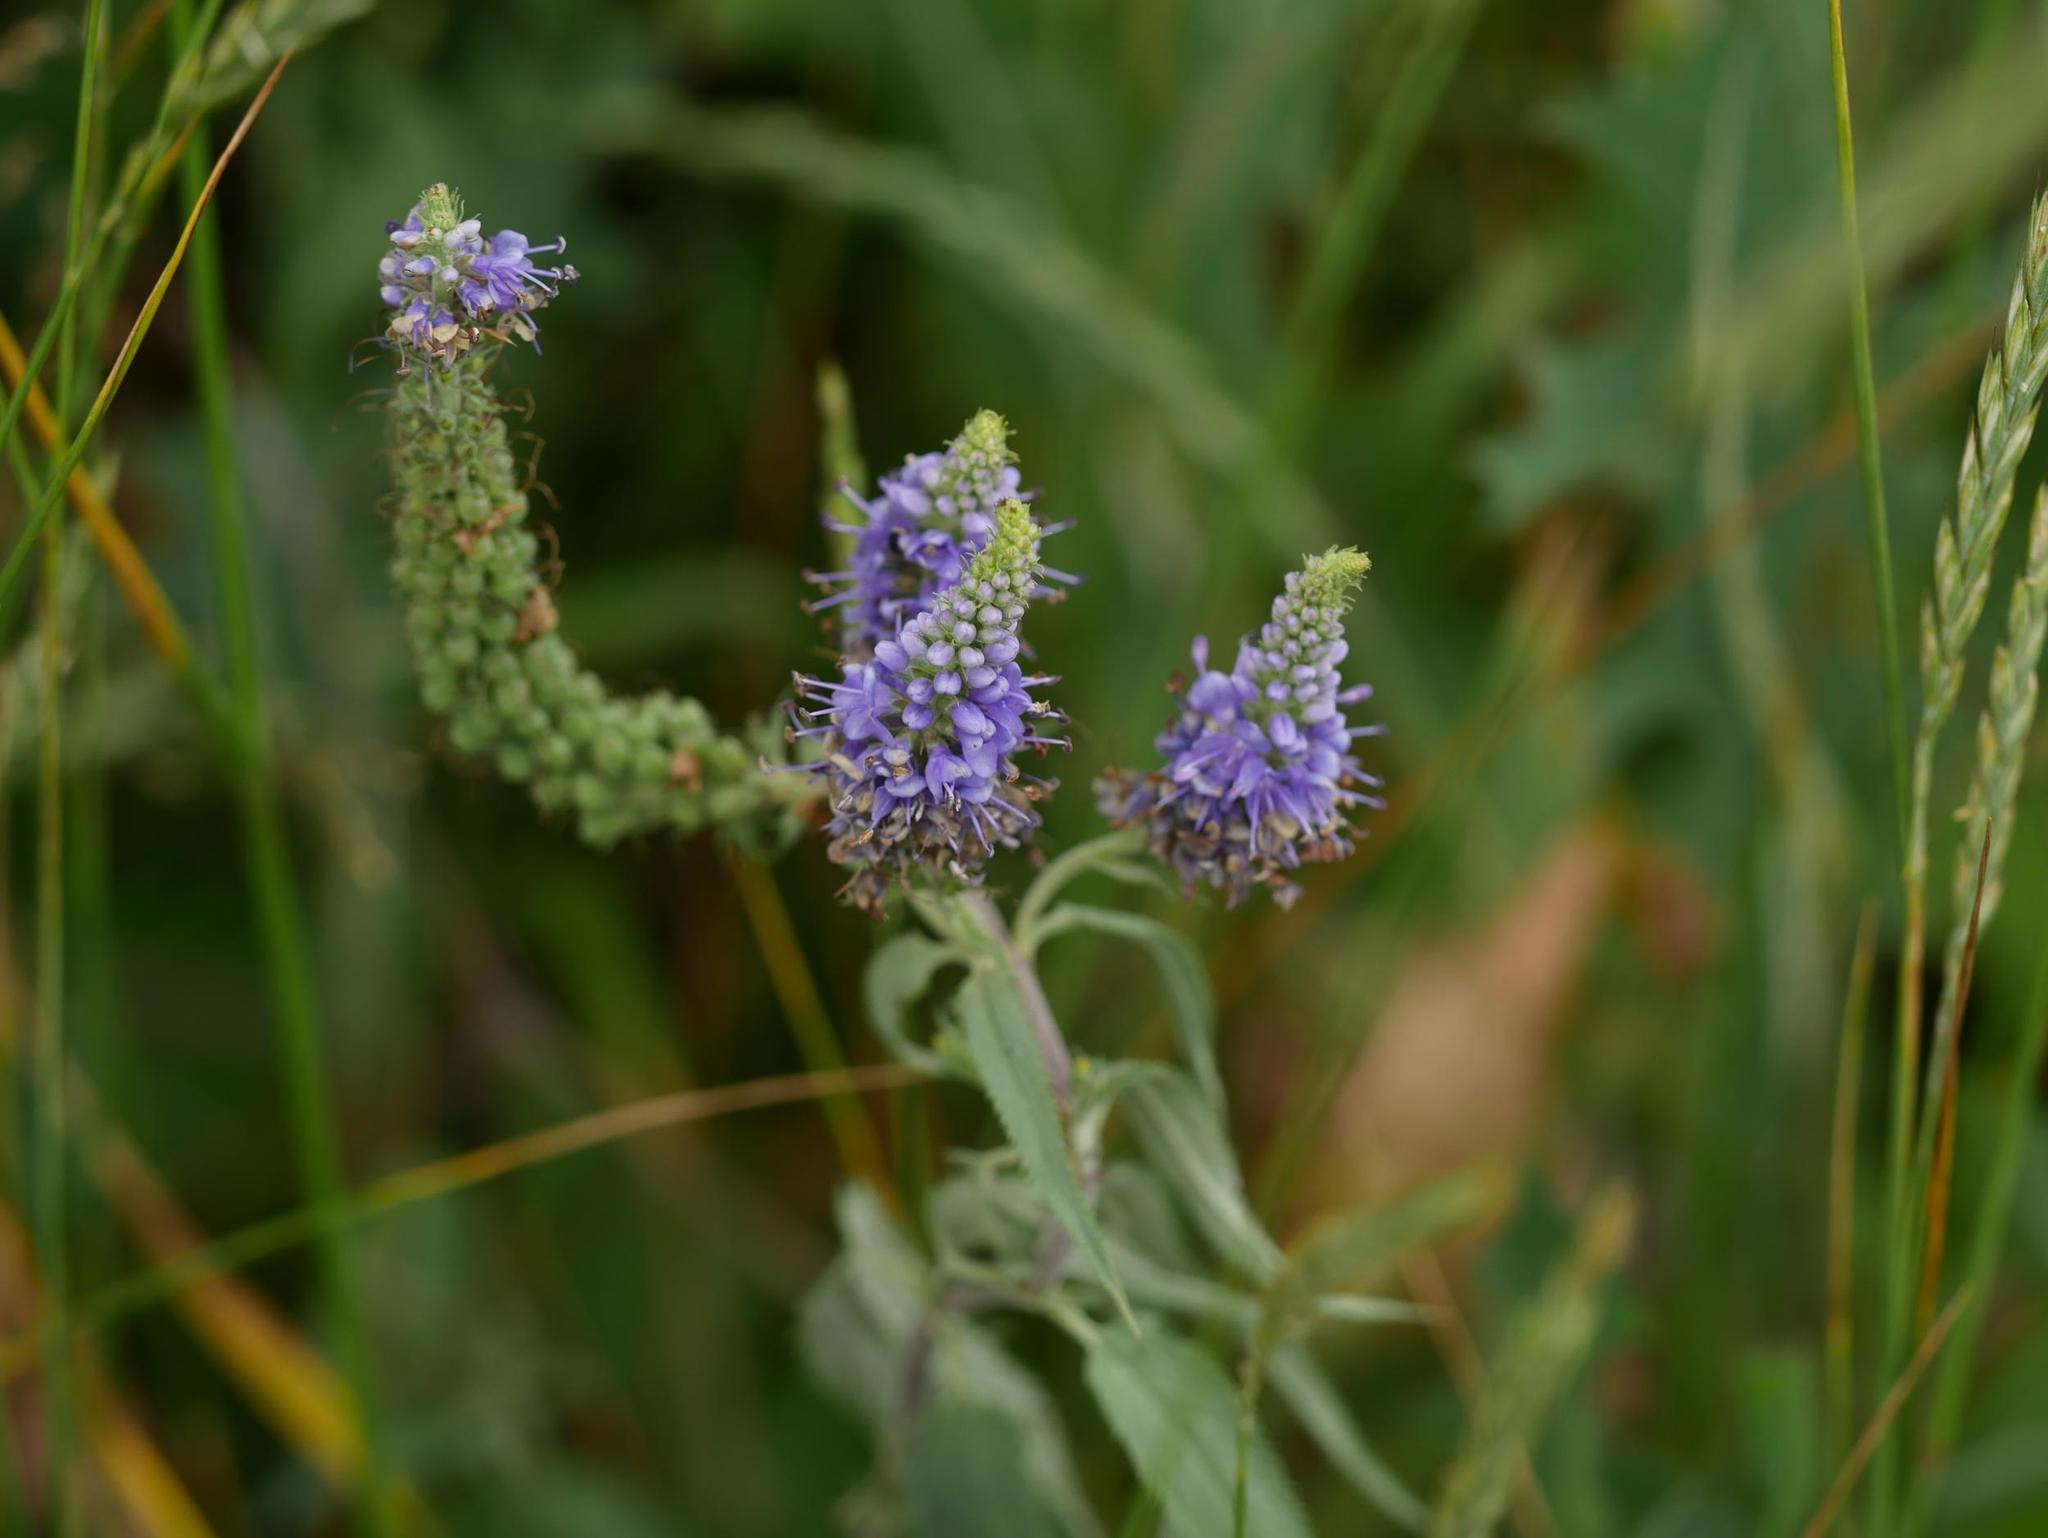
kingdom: Plantae
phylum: Tracheophyta
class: Magnoliopsida
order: Lamiales
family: Plantaginaceae
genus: Veronica
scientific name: Veronica longifolia
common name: Garden speedwell
